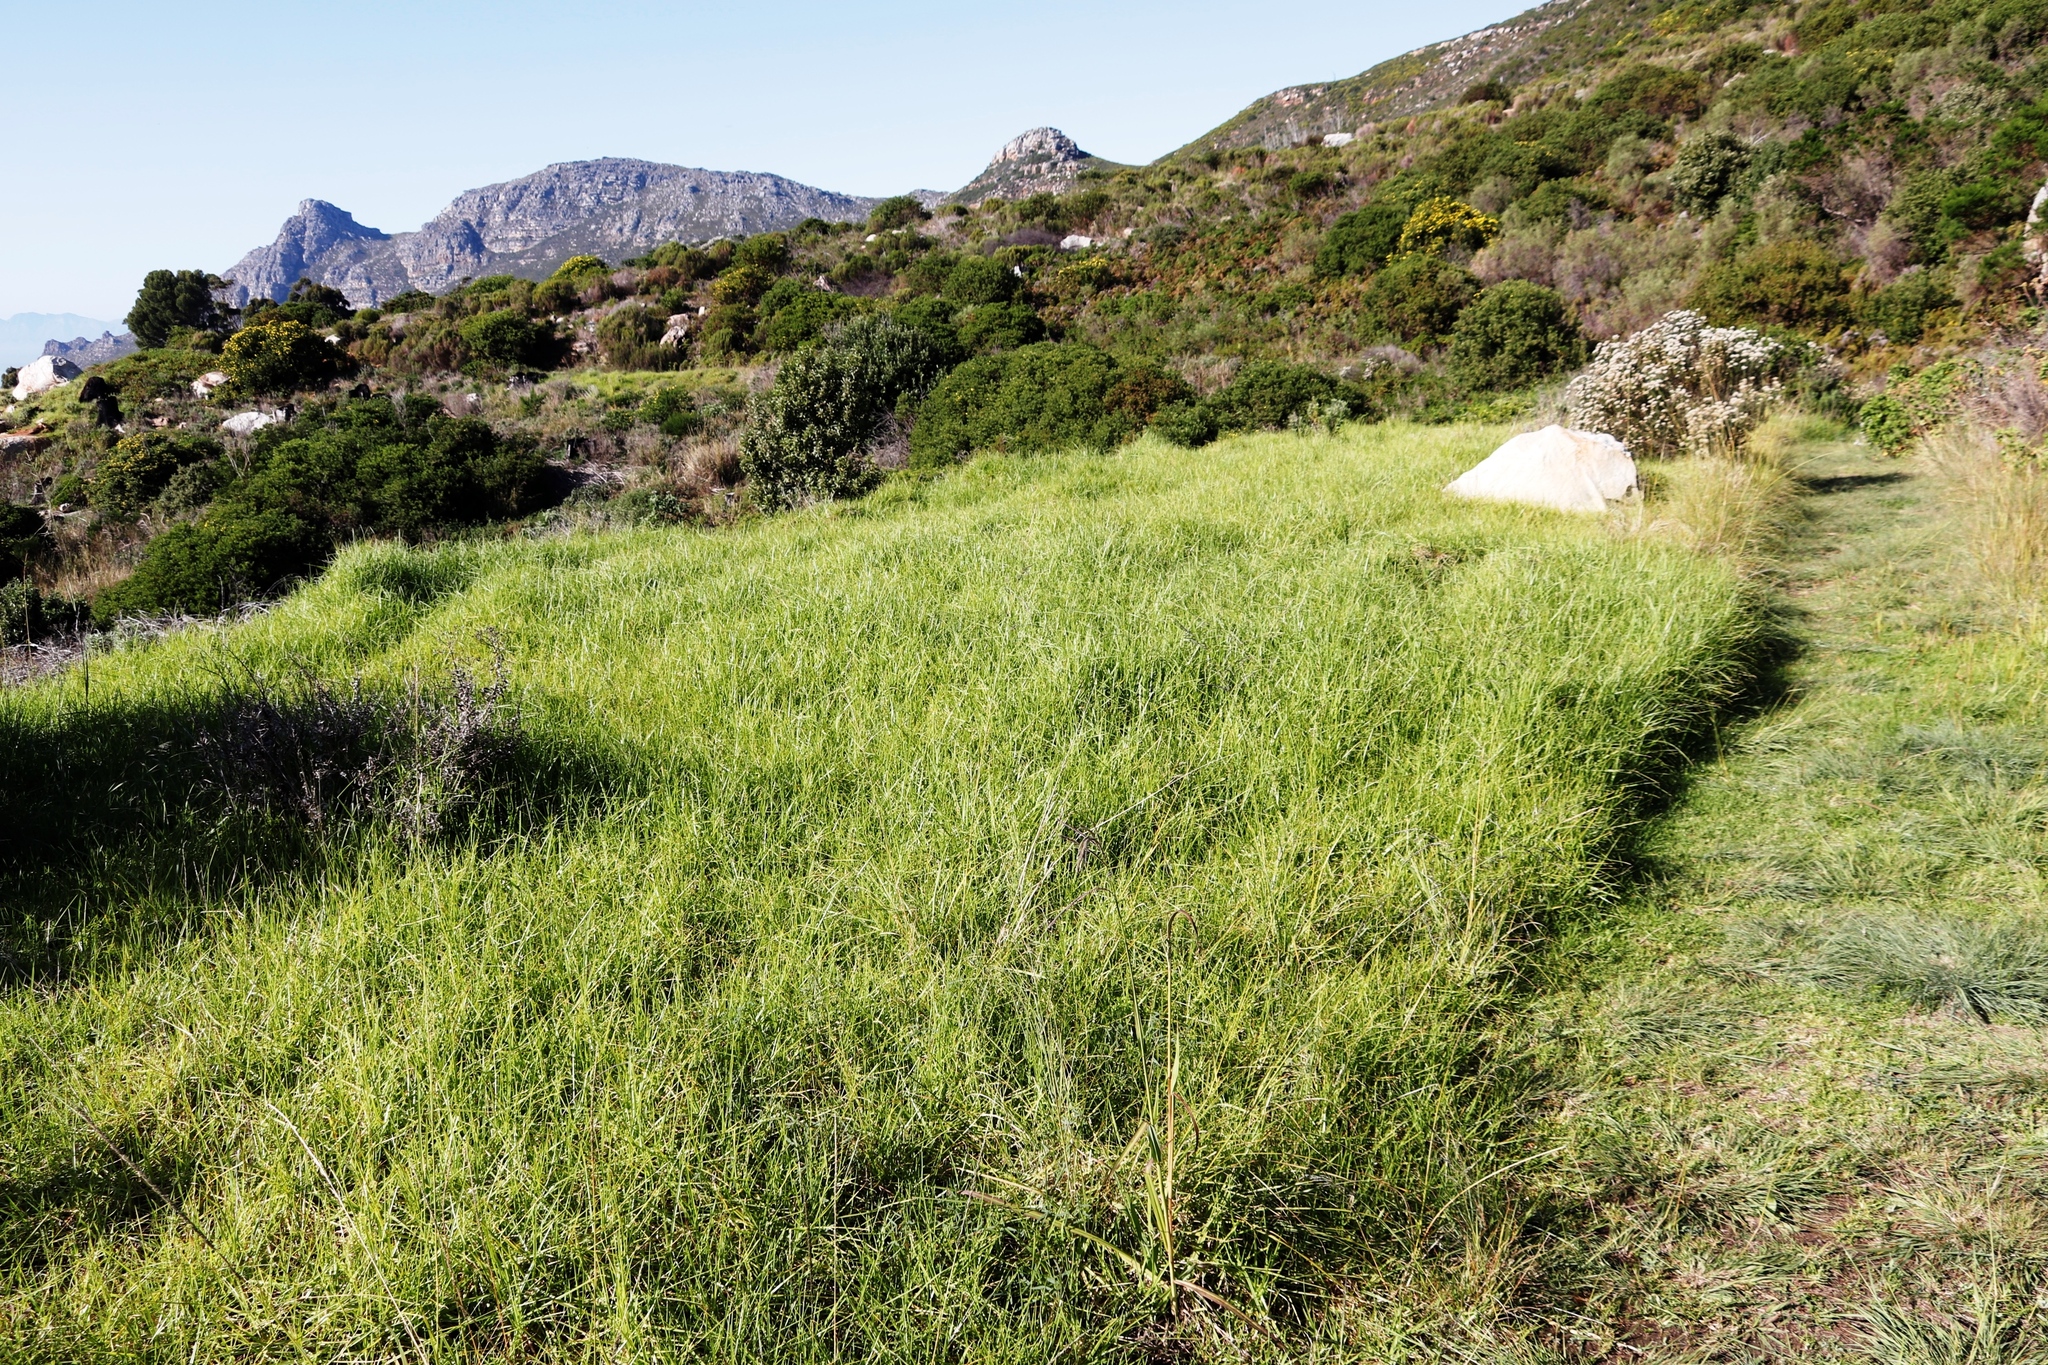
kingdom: Plantae
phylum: Tracheophyta
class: Liliopsida
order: Poales
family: Poaceae
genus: Cenchrus
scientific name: Cenchrus clandestinus
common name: Kikuyugrass
